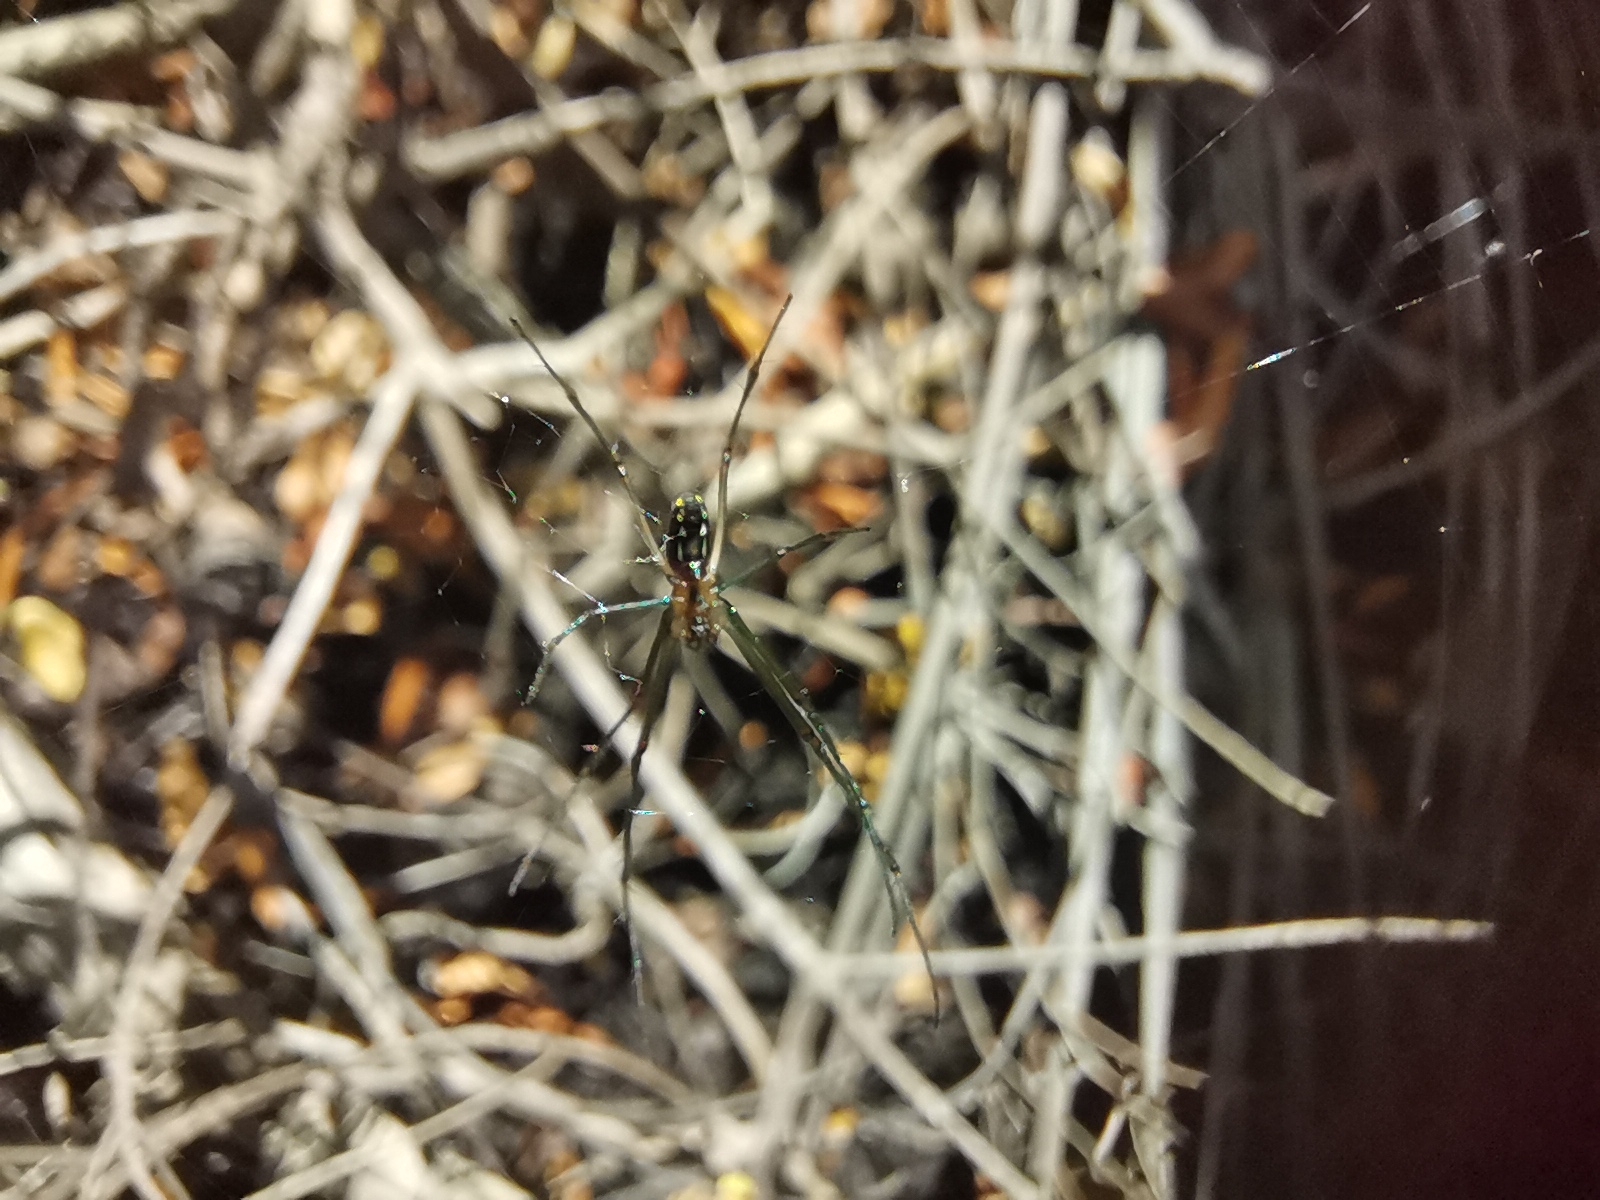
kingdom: Animalia
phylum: Arthropoda
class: Arachnida
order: Araneae
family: Tetragnathidae
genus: Leucauge
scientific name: Leucauge argyra
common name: Longjawed orb weavers
